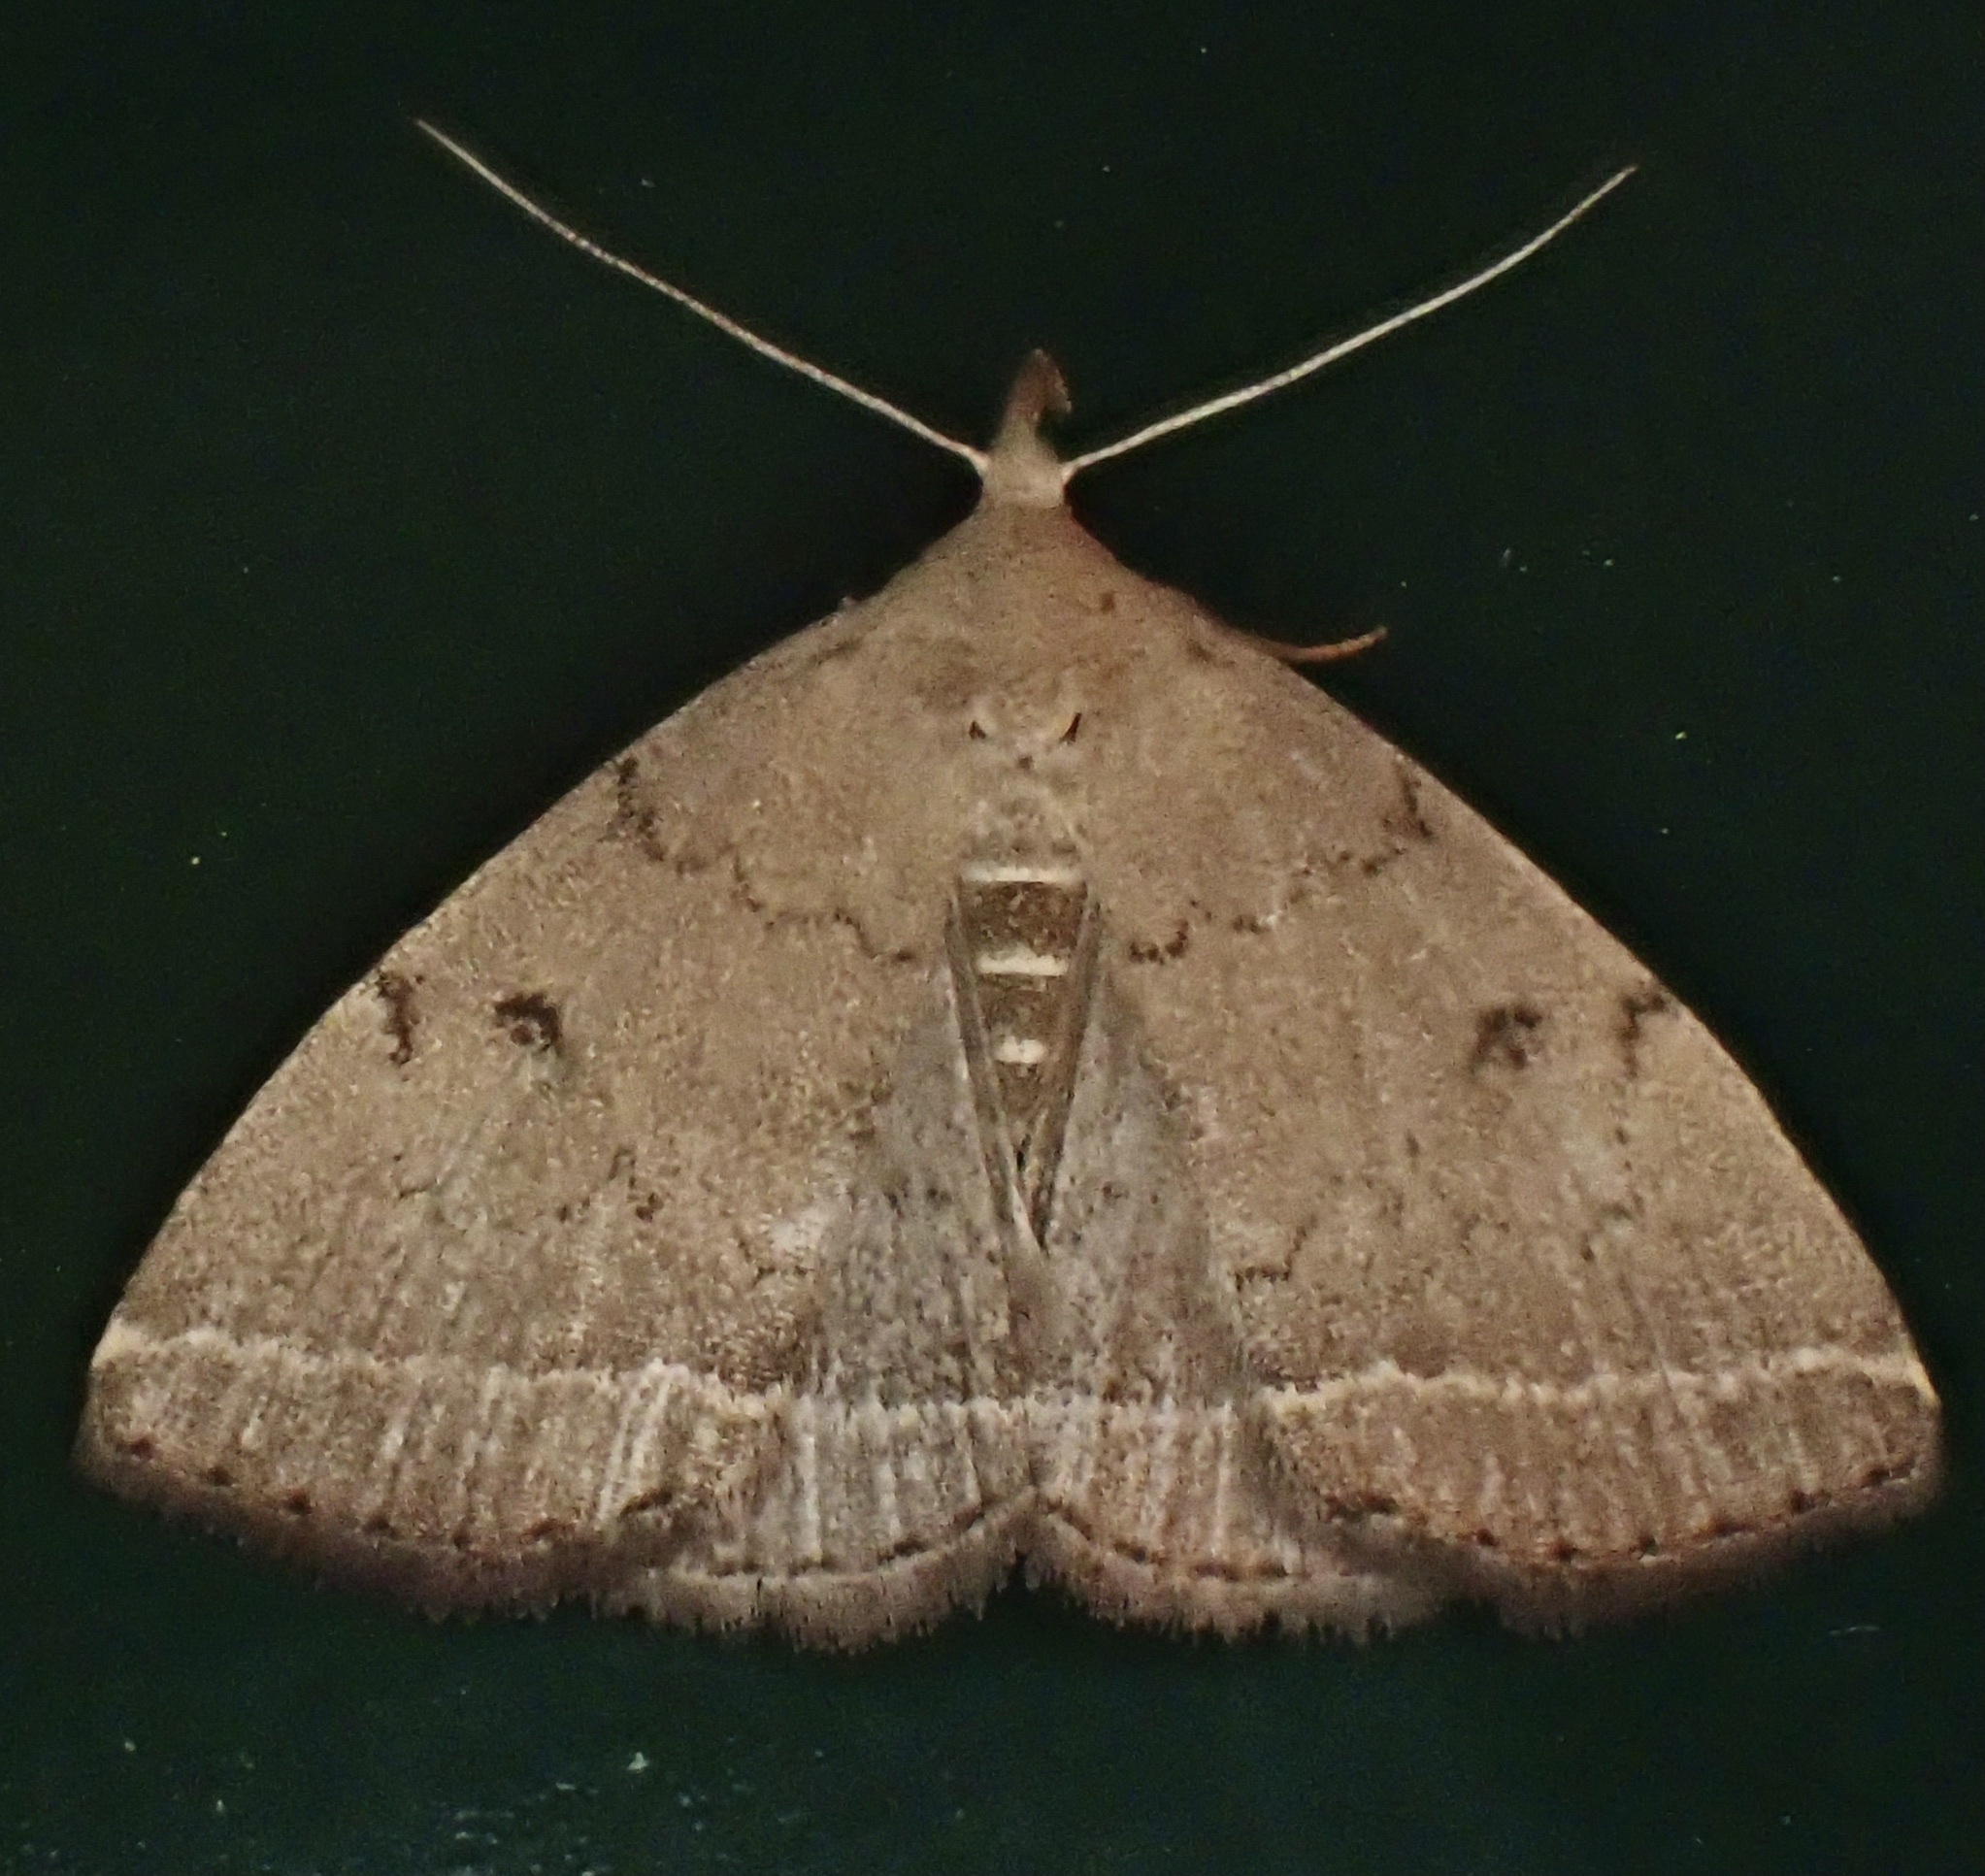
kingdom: Animalia
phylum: Arthropoda
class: Insecta
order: Lepidoptera
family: Erebidae
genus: Zanclognatha
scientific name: Zanclognatha protumnusalis
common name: Complex fan-foot
